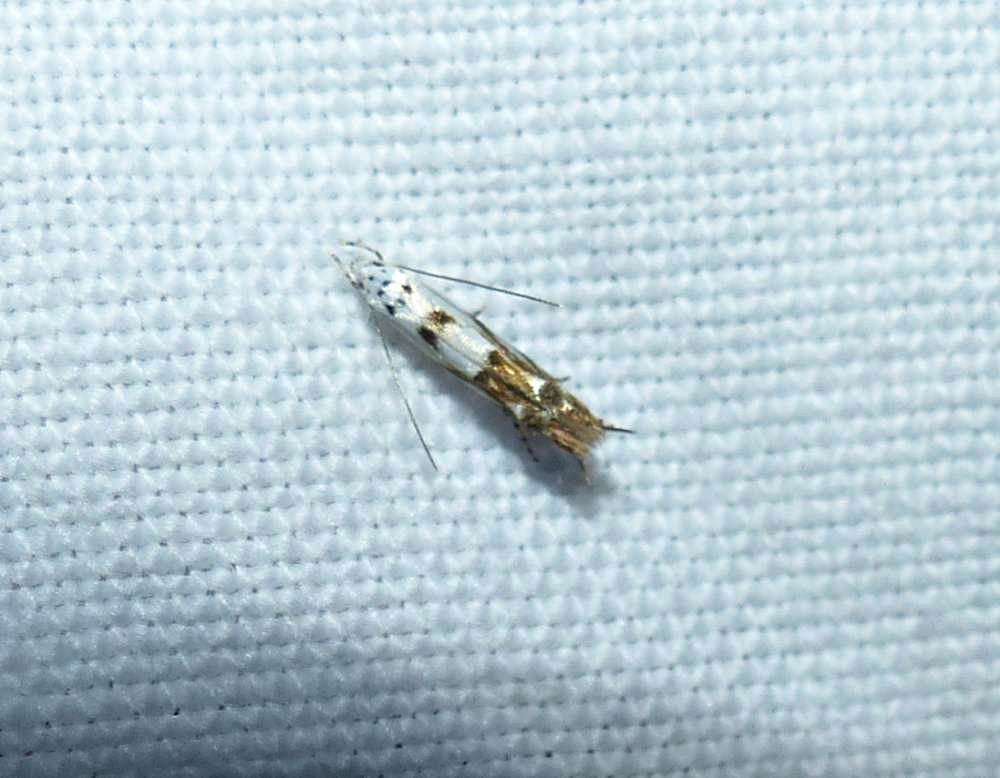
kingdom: Animalia
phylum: Arthropoda
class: Insecta
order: Lepidoptera
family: Momphidae
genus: Mompha
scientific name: Mompha eloisella
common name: Red-streaked mompha moth
